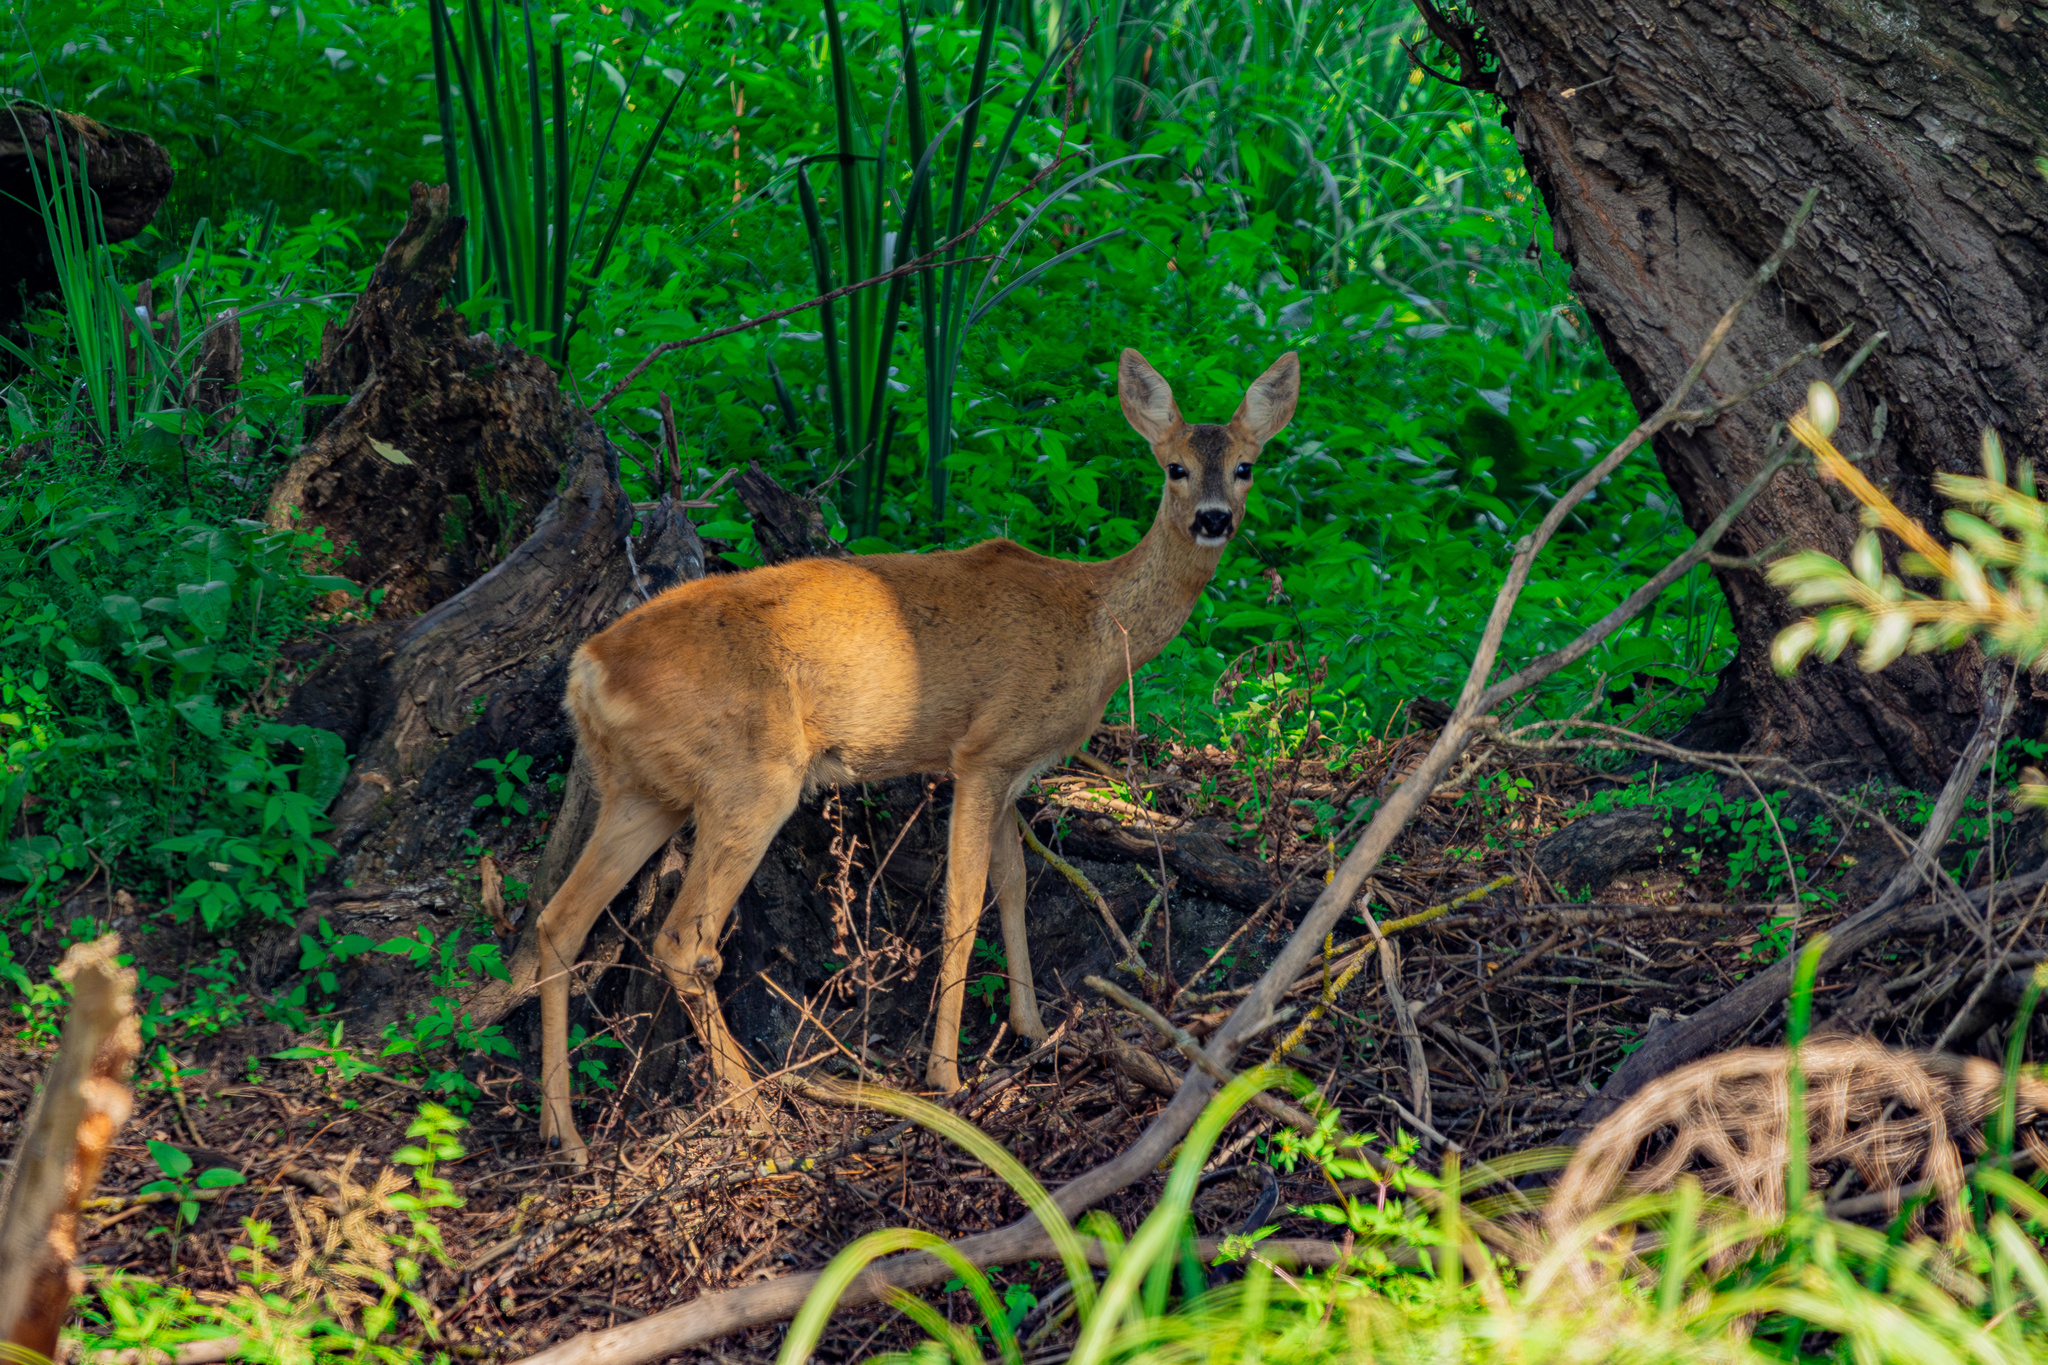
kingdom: Animalia
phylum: Chordata
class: Mammalia
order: Artiodactyla
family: Cervidae
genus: Capreolus
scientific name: Capreolus capreolus
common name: Western roe deer
